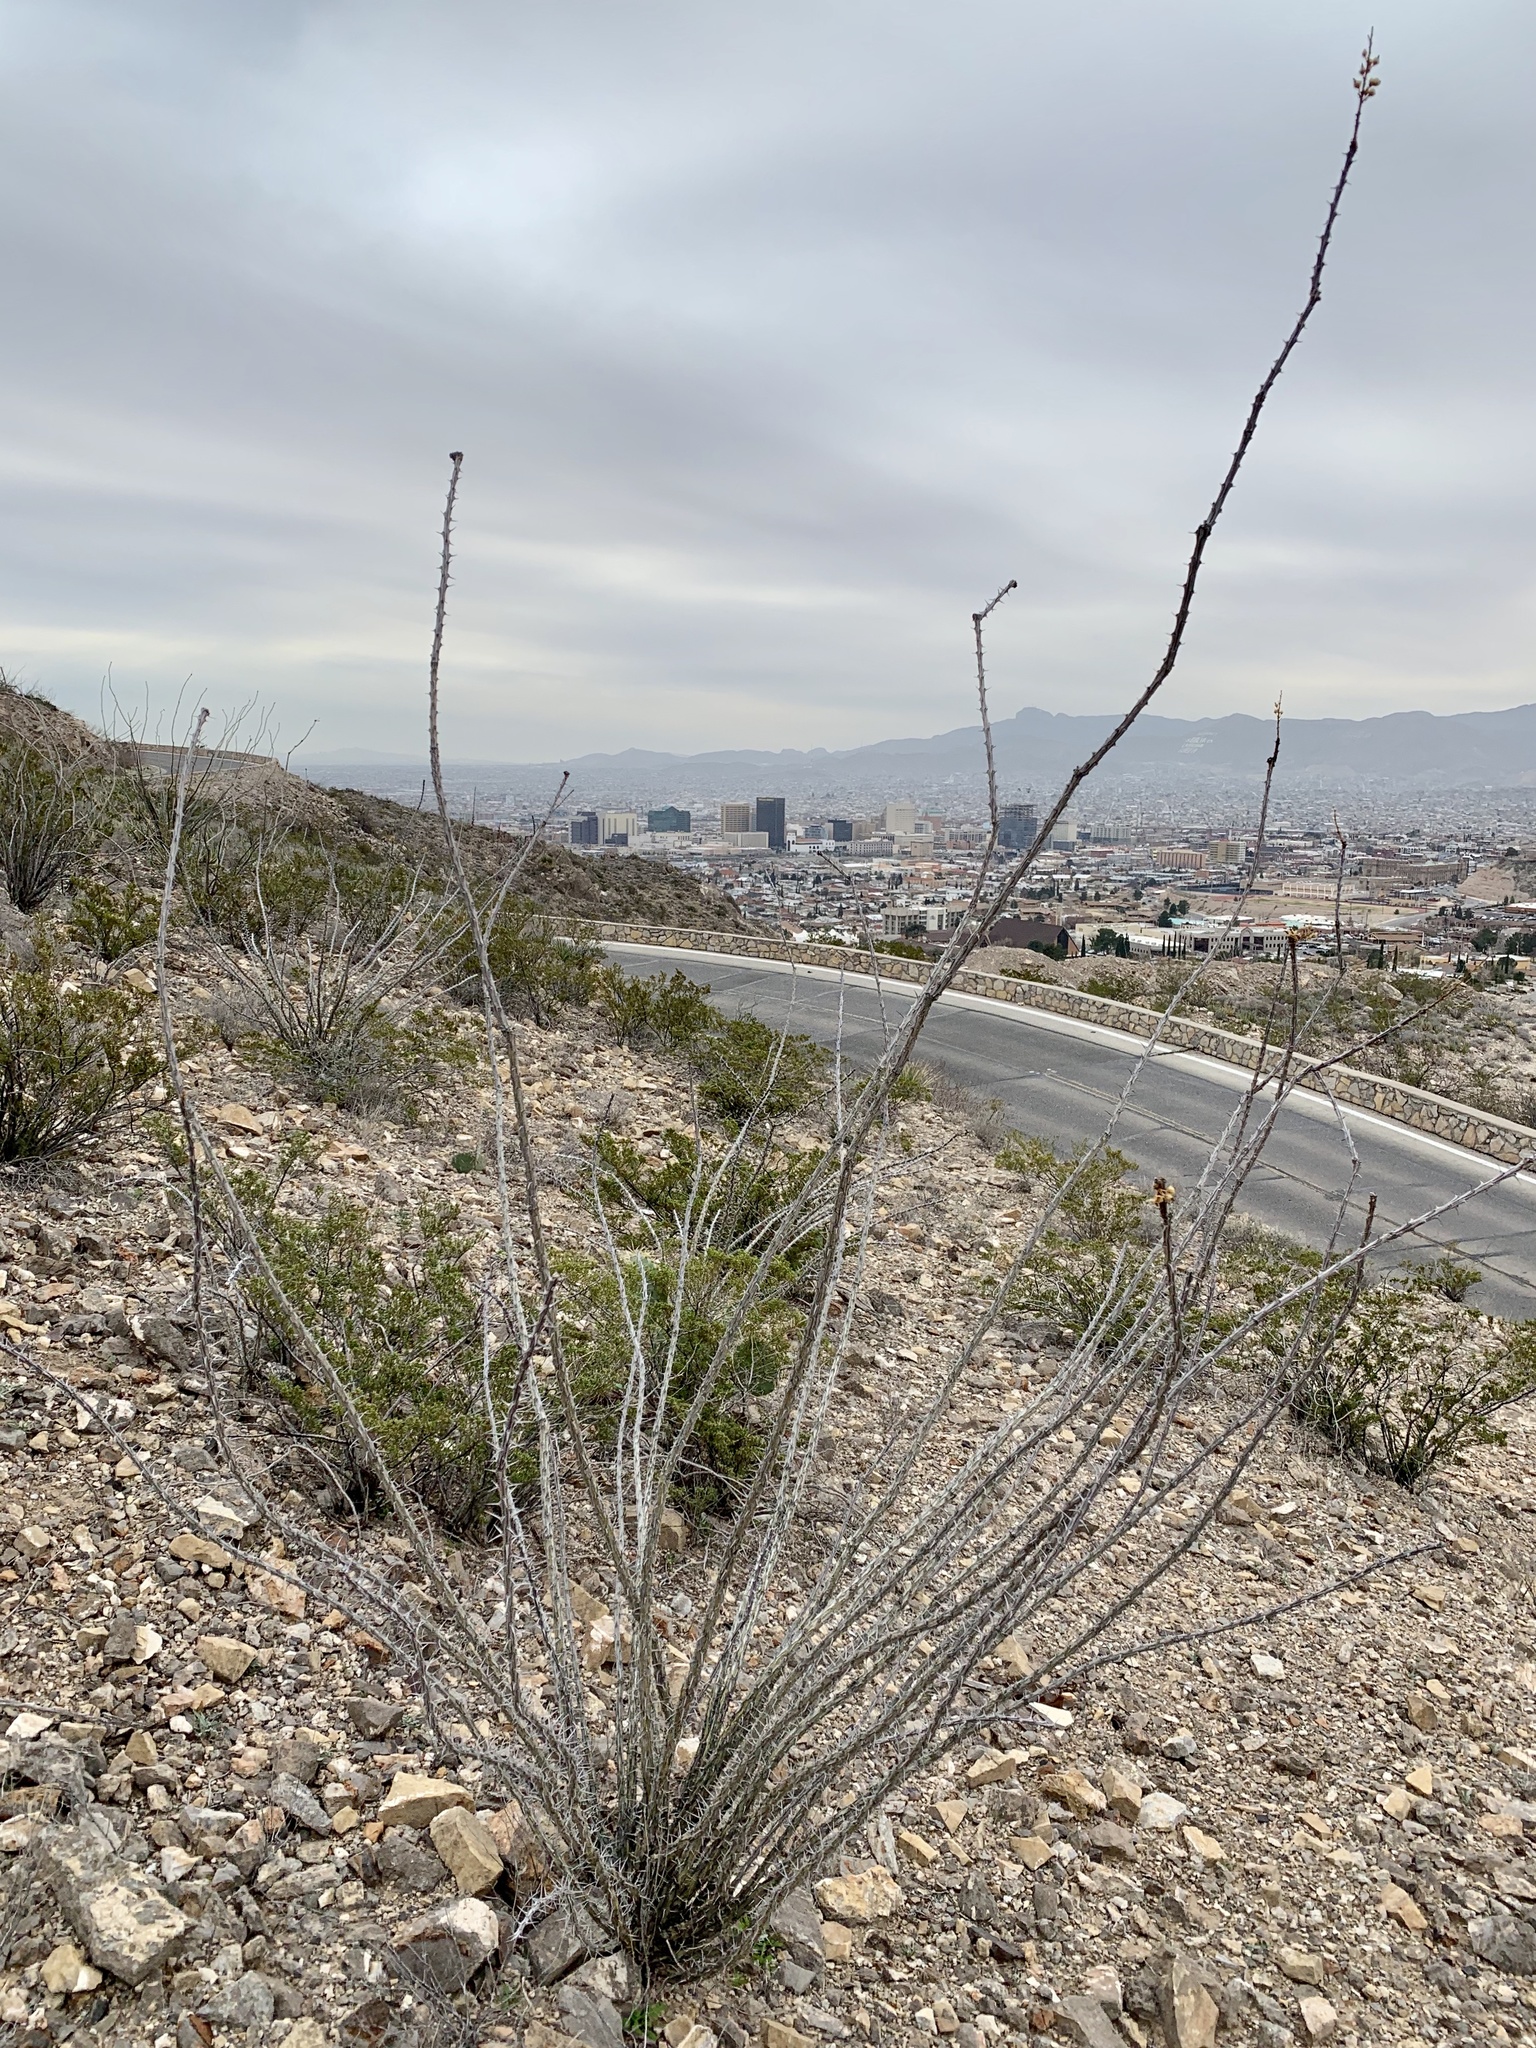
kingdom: Plantae
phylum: Tracheophyta
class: Magnoliopsida
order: Ericales
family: Fouquieriaceae
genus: Fouquieria
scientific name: Fouquieria splendens
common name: Vine-cactus
